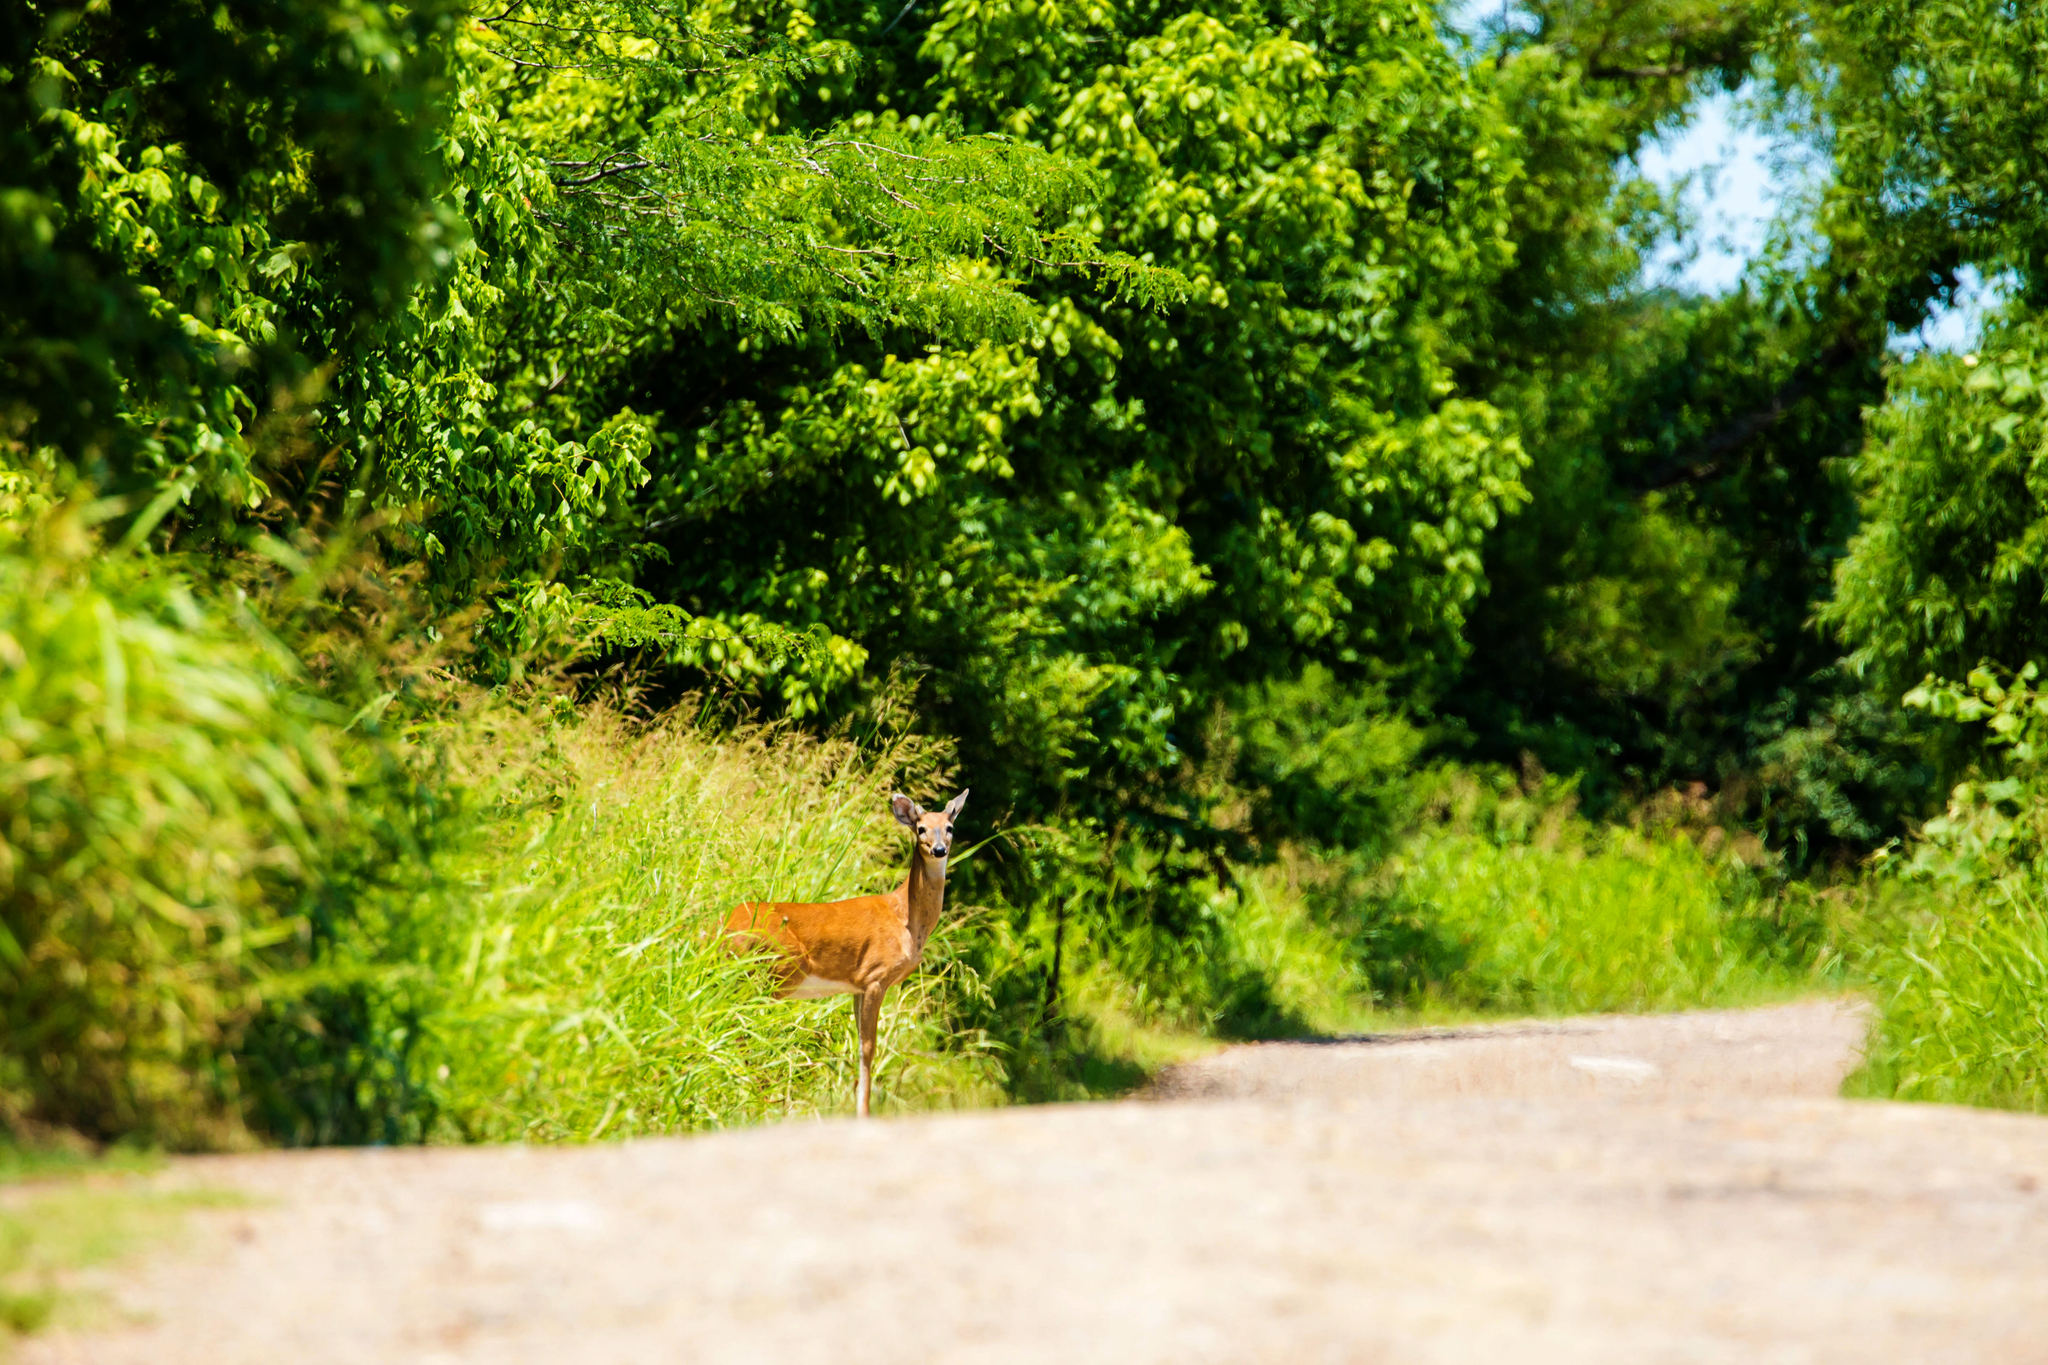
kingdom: Animalia
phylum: Chordata
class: Mammalia
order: Artiodactyla
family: Cervidae
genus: Odocoileus
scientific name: Odocoileus virginianus
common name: White-tailed deer
